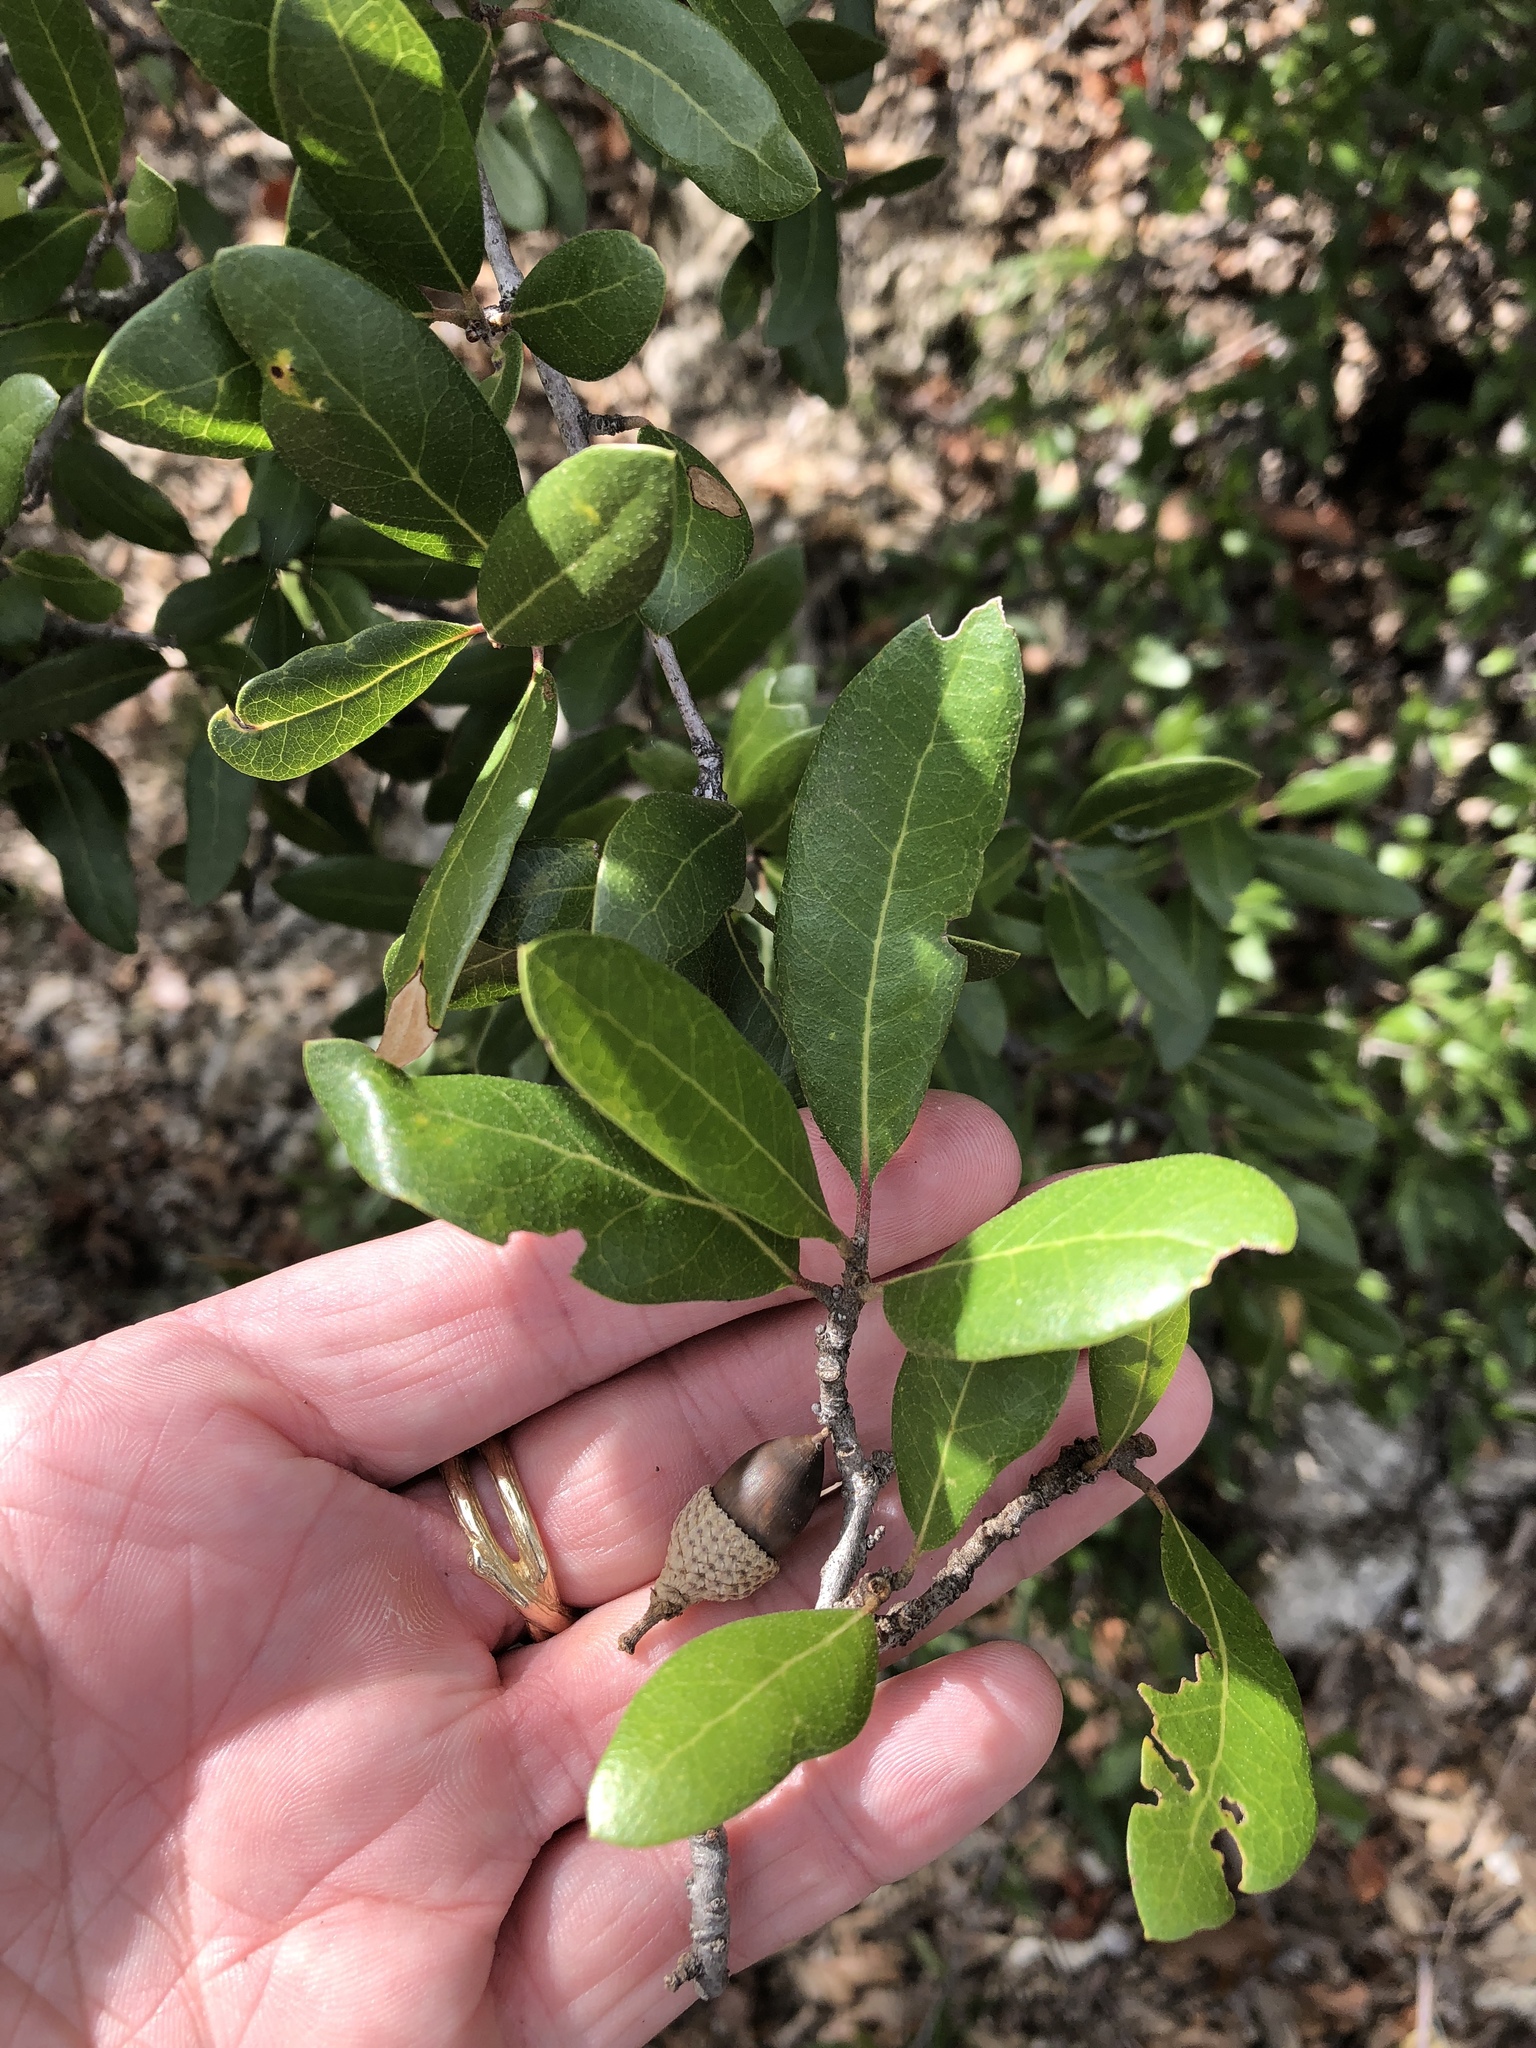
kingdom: Plantae
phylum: Tracheophyta
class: Magnoliopsida
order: Fagales
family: Fagaceae
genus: Quercus
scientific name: Quercus fusiformis
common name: Texas live oak
